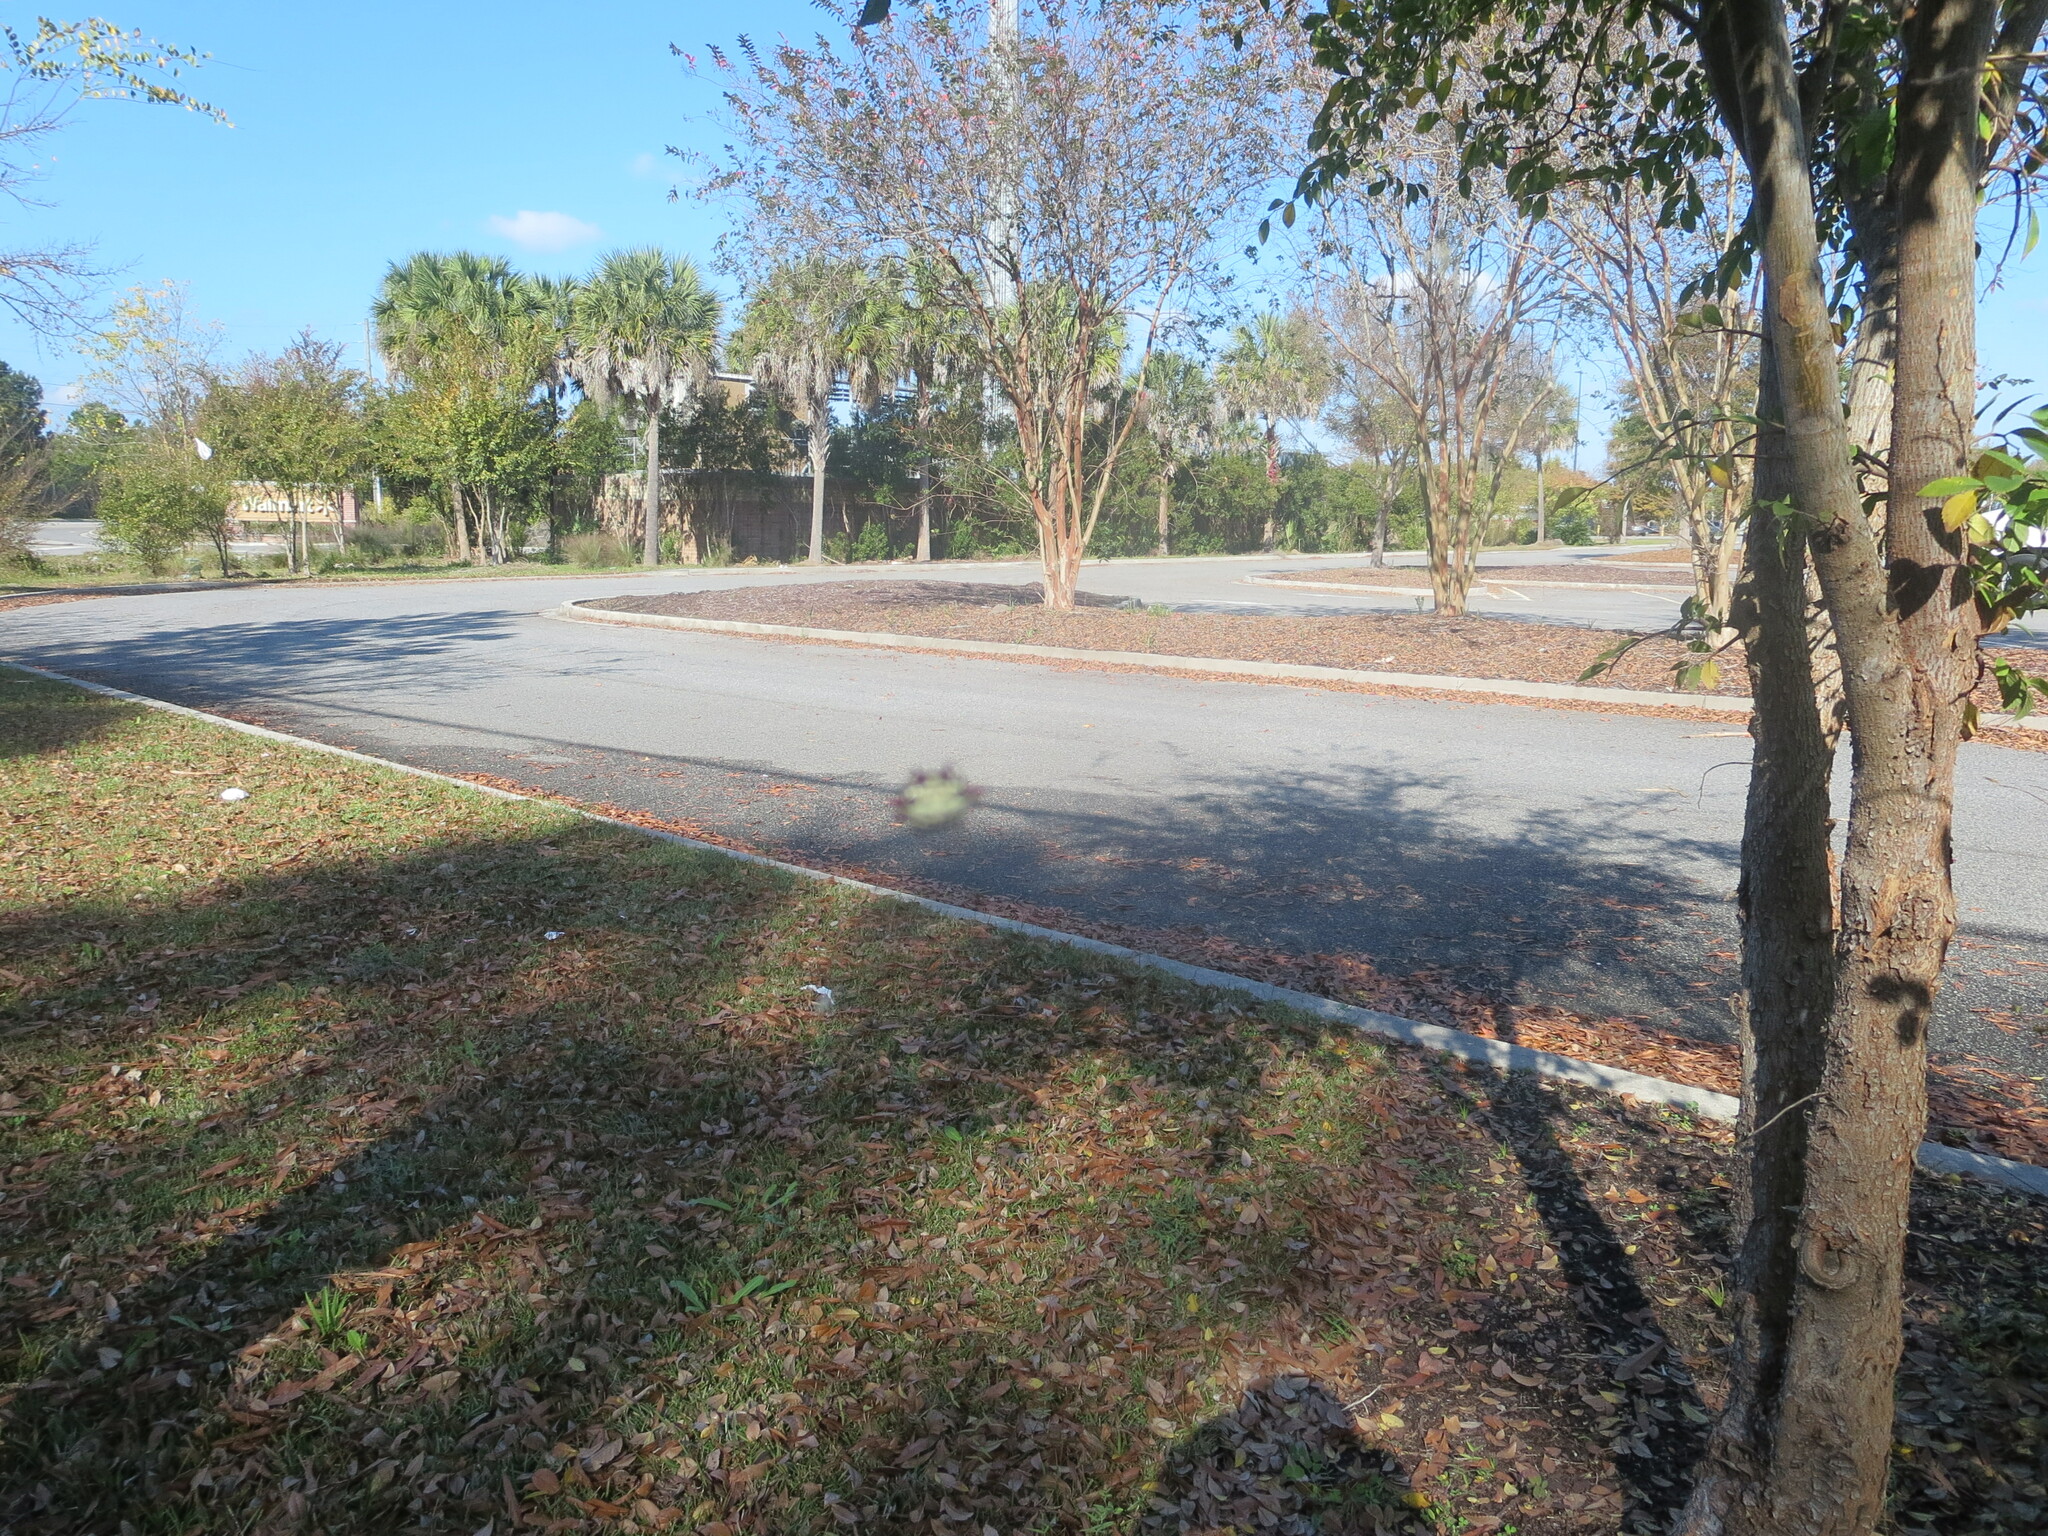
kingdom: Animalia
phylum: Arthropoda
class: Arachnida
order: Araneae
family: Araneidae
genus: Gasteracantha
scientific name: Gasteracantha cancriformis
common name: Orb weavers
